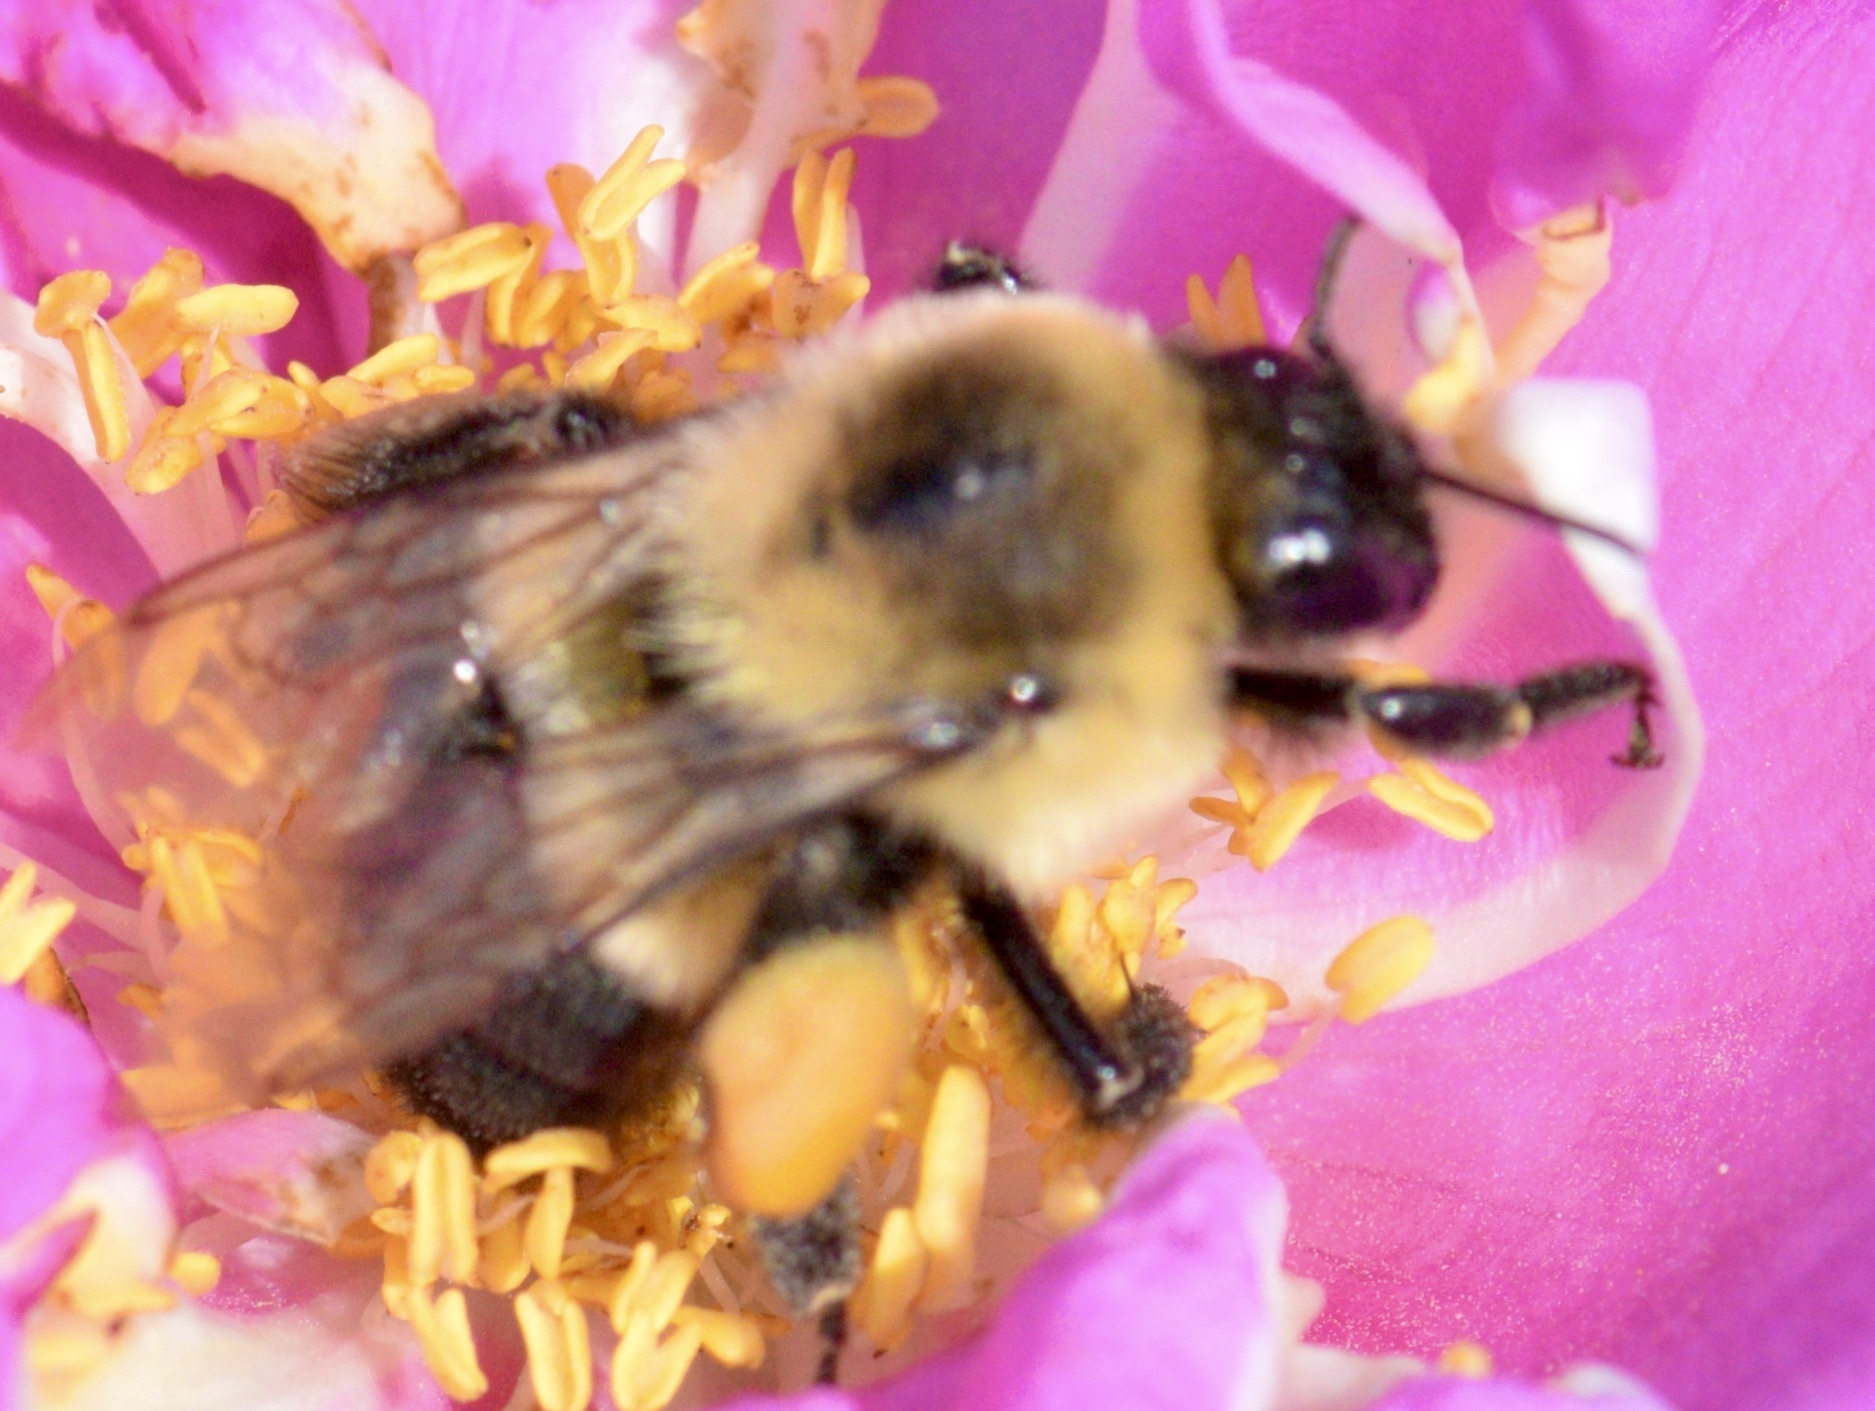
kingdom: Animalia
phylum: Arthropoda
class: Insecta
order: Hymenoptera
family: Apidae
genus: Bombus
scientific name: Bombus impatiens
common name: Common eastern bumble bee
